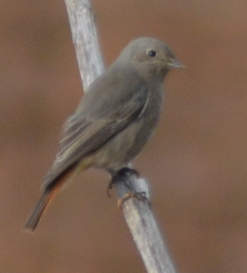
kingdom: Animalia
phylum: Chordata
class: Aves
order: Passeriformes
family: Muscicapidae
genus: Phoenicurus
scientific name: Phoenicurus ochruros
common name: Black redstart
